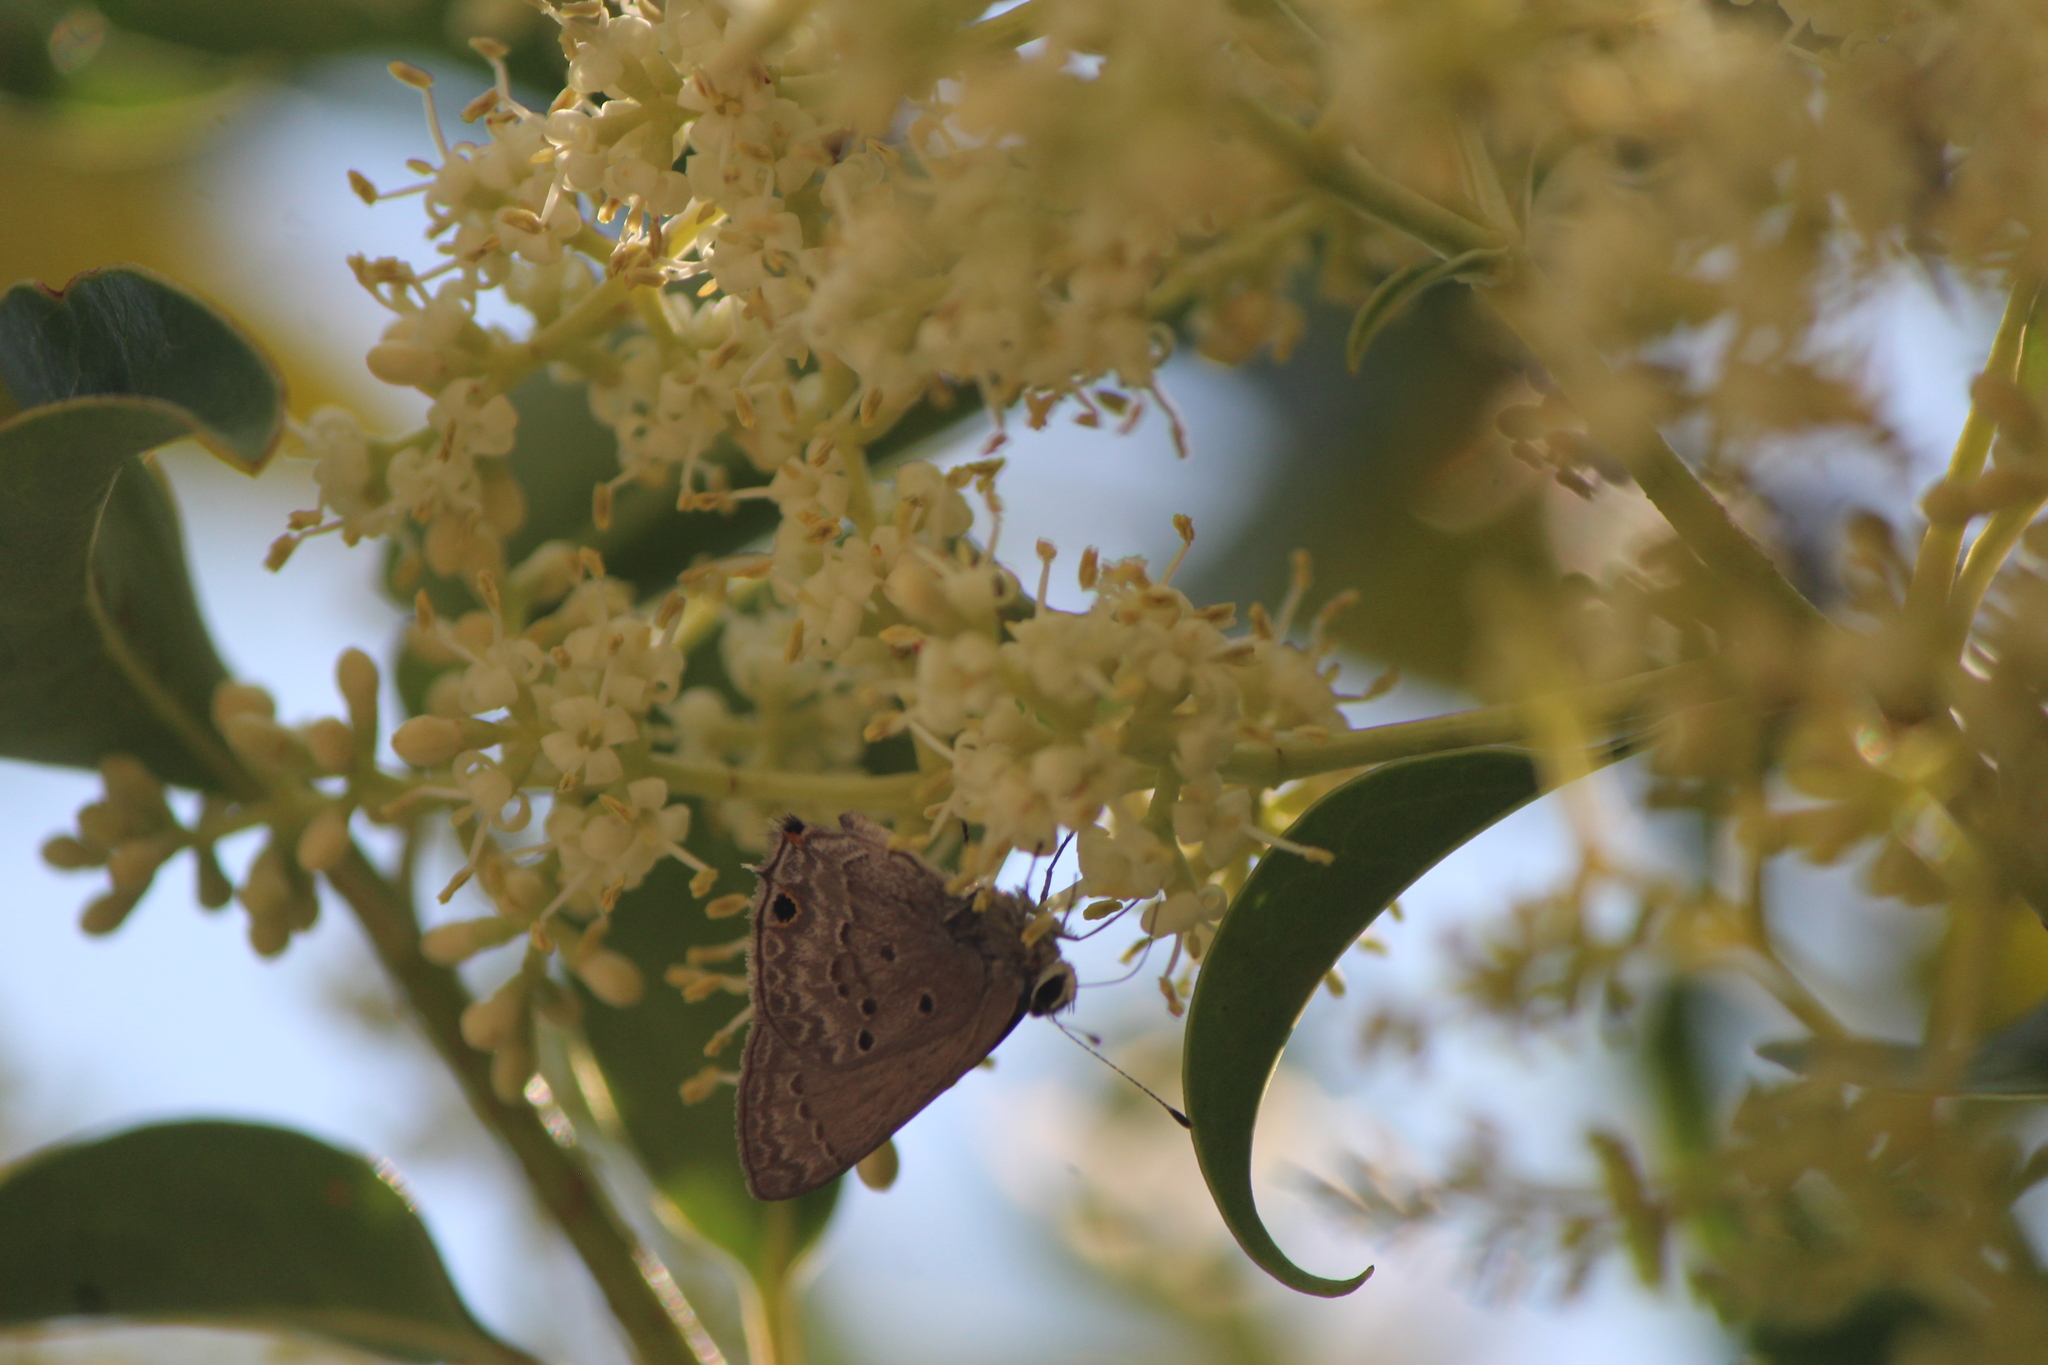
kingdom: Animalia
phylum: Arthropoda
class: Insecta
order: Lepidoptera
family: Lycaenidae
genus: Callicista
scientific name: Callicista columella
